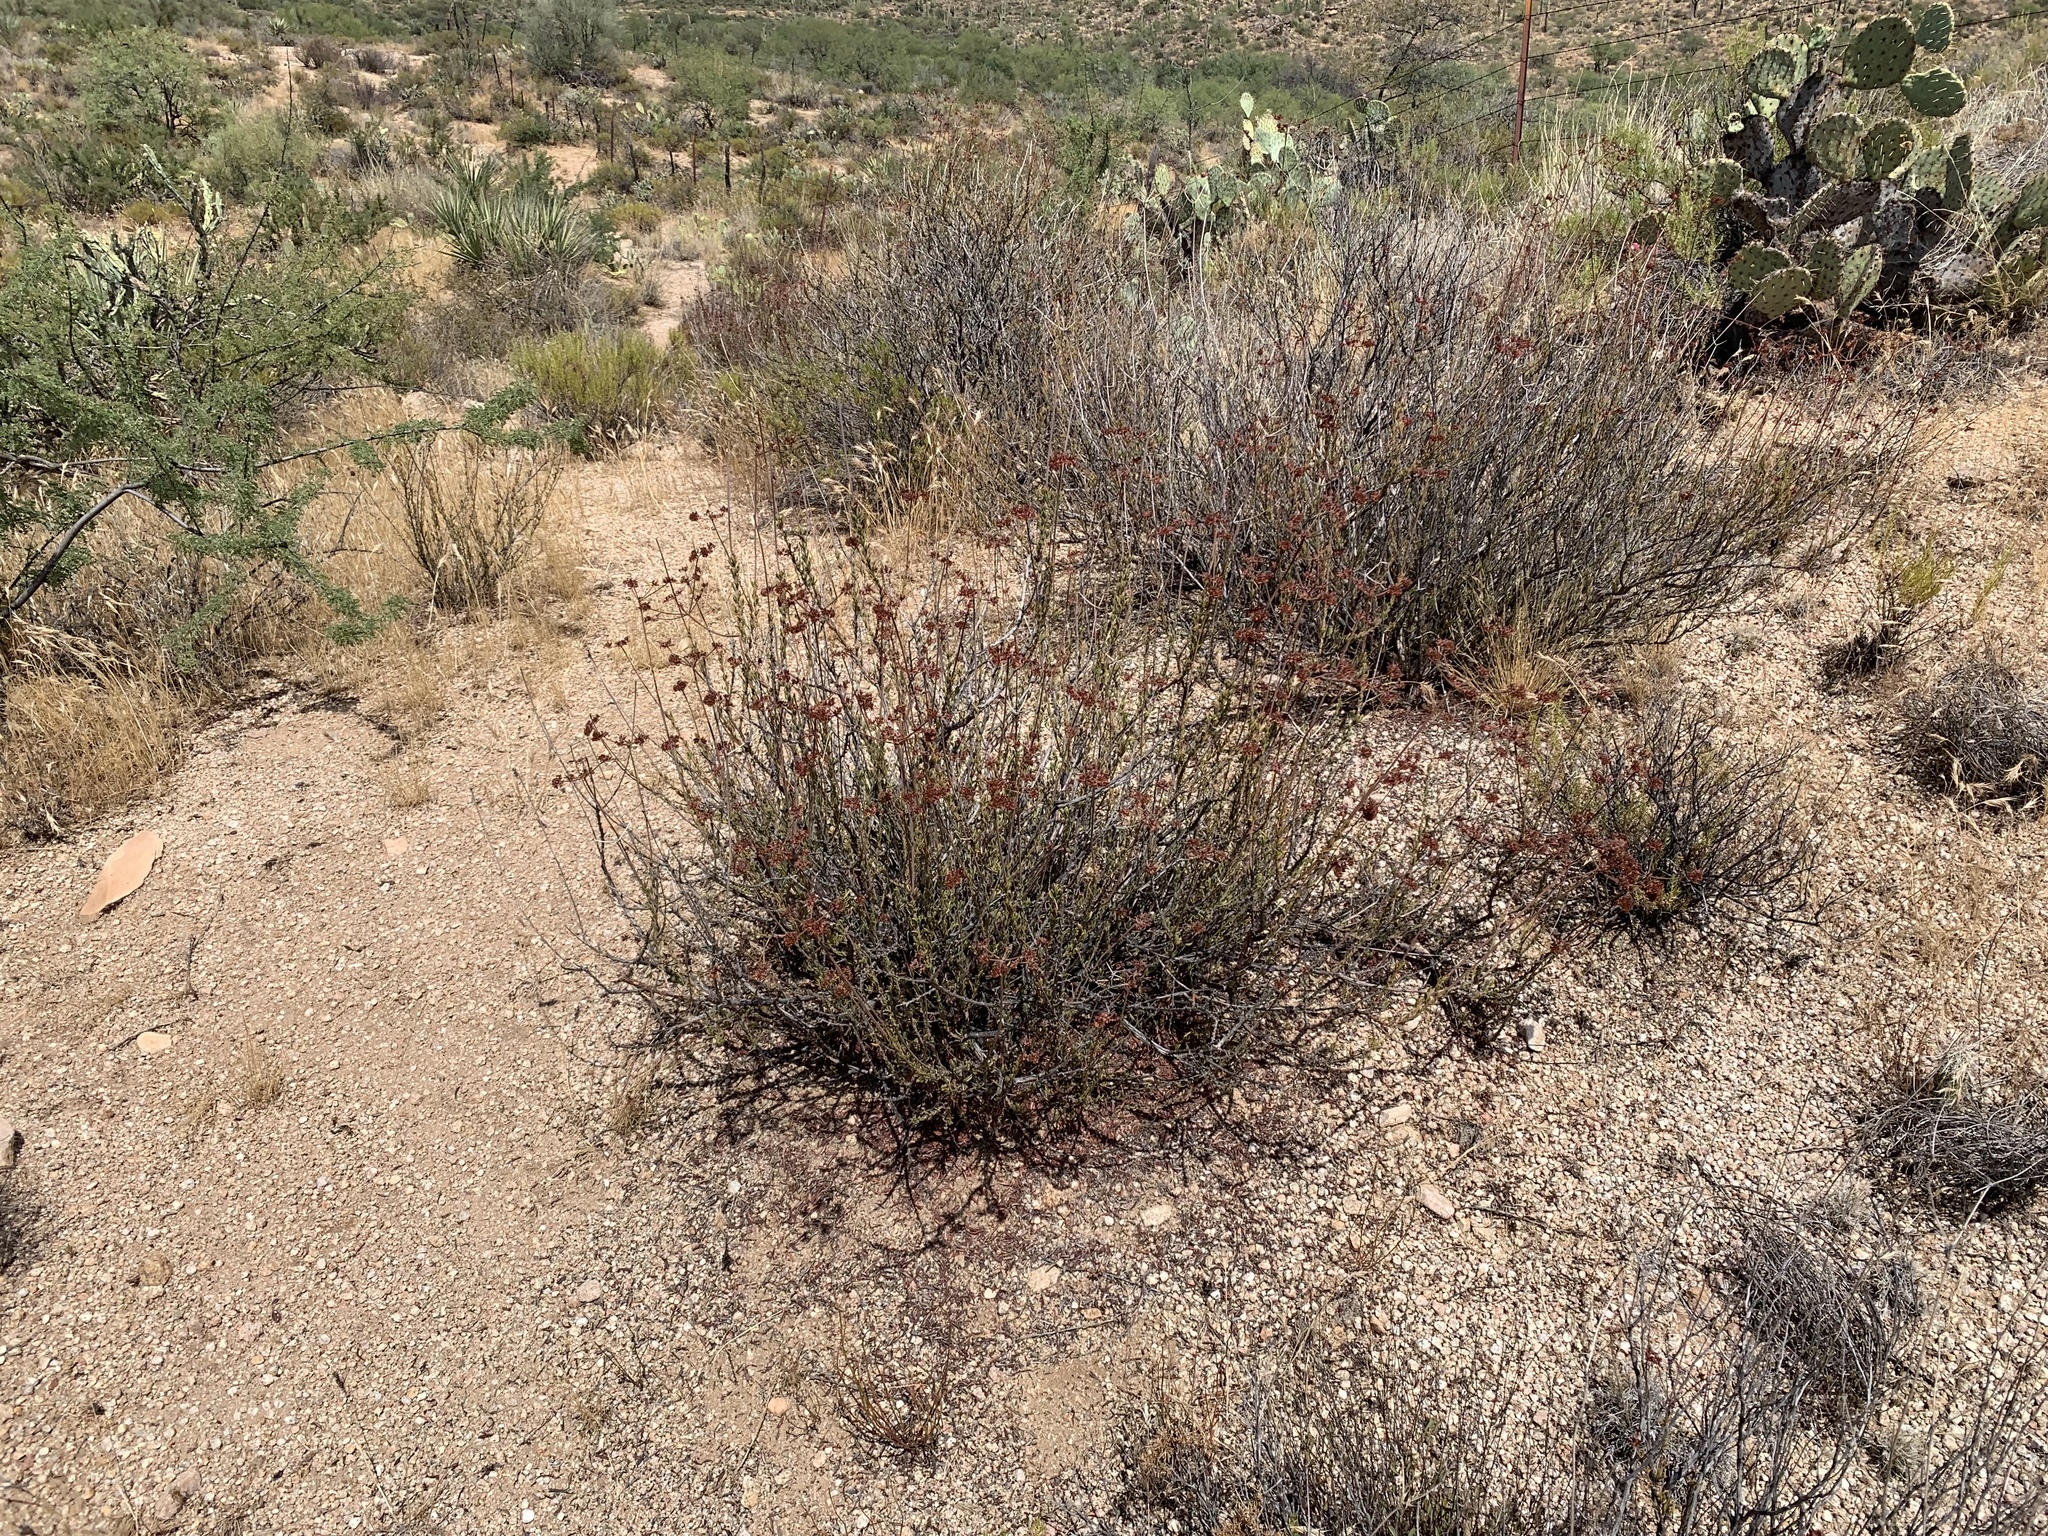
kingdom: Plantae
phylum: Tracheophyta
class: Magnoliopsida
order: Caryophyllales
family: Polygonaceae
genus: Eriogonum
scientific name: Eriogonum fasciculatum
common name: California wild buckwheat
